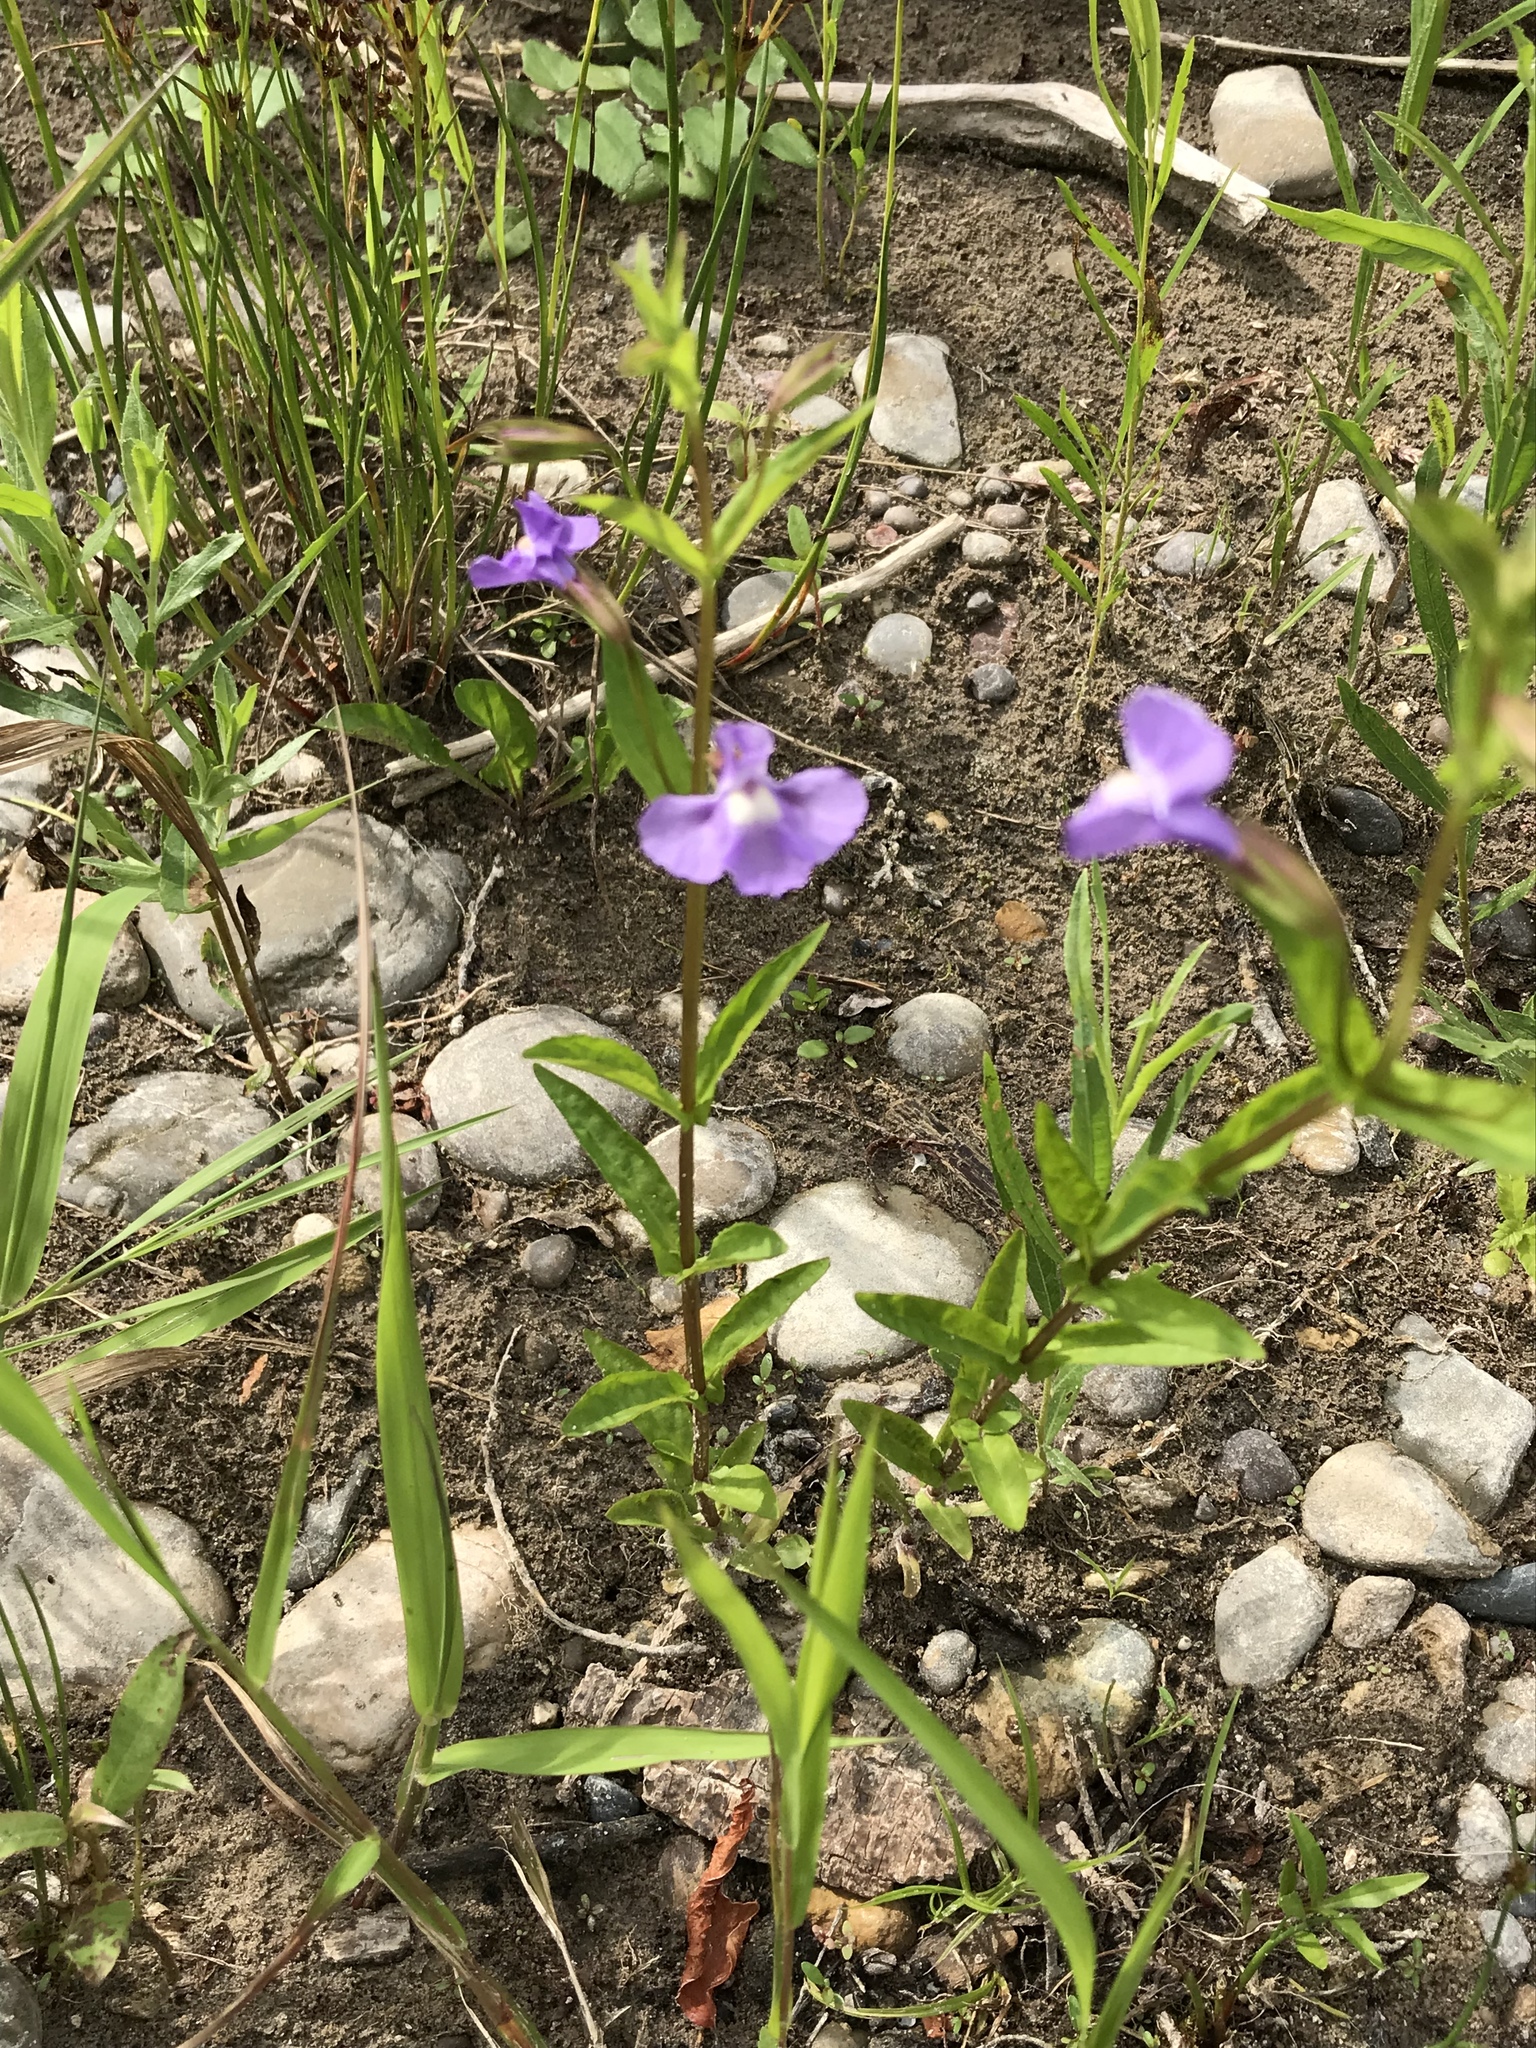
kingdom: Plantae
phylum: Tracheophyta
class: Magnoliopsida
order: Lamiales
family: Phrymaceae
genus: Mimulus
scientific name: Mimulus ringens
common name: Allegheny monkeyflower
